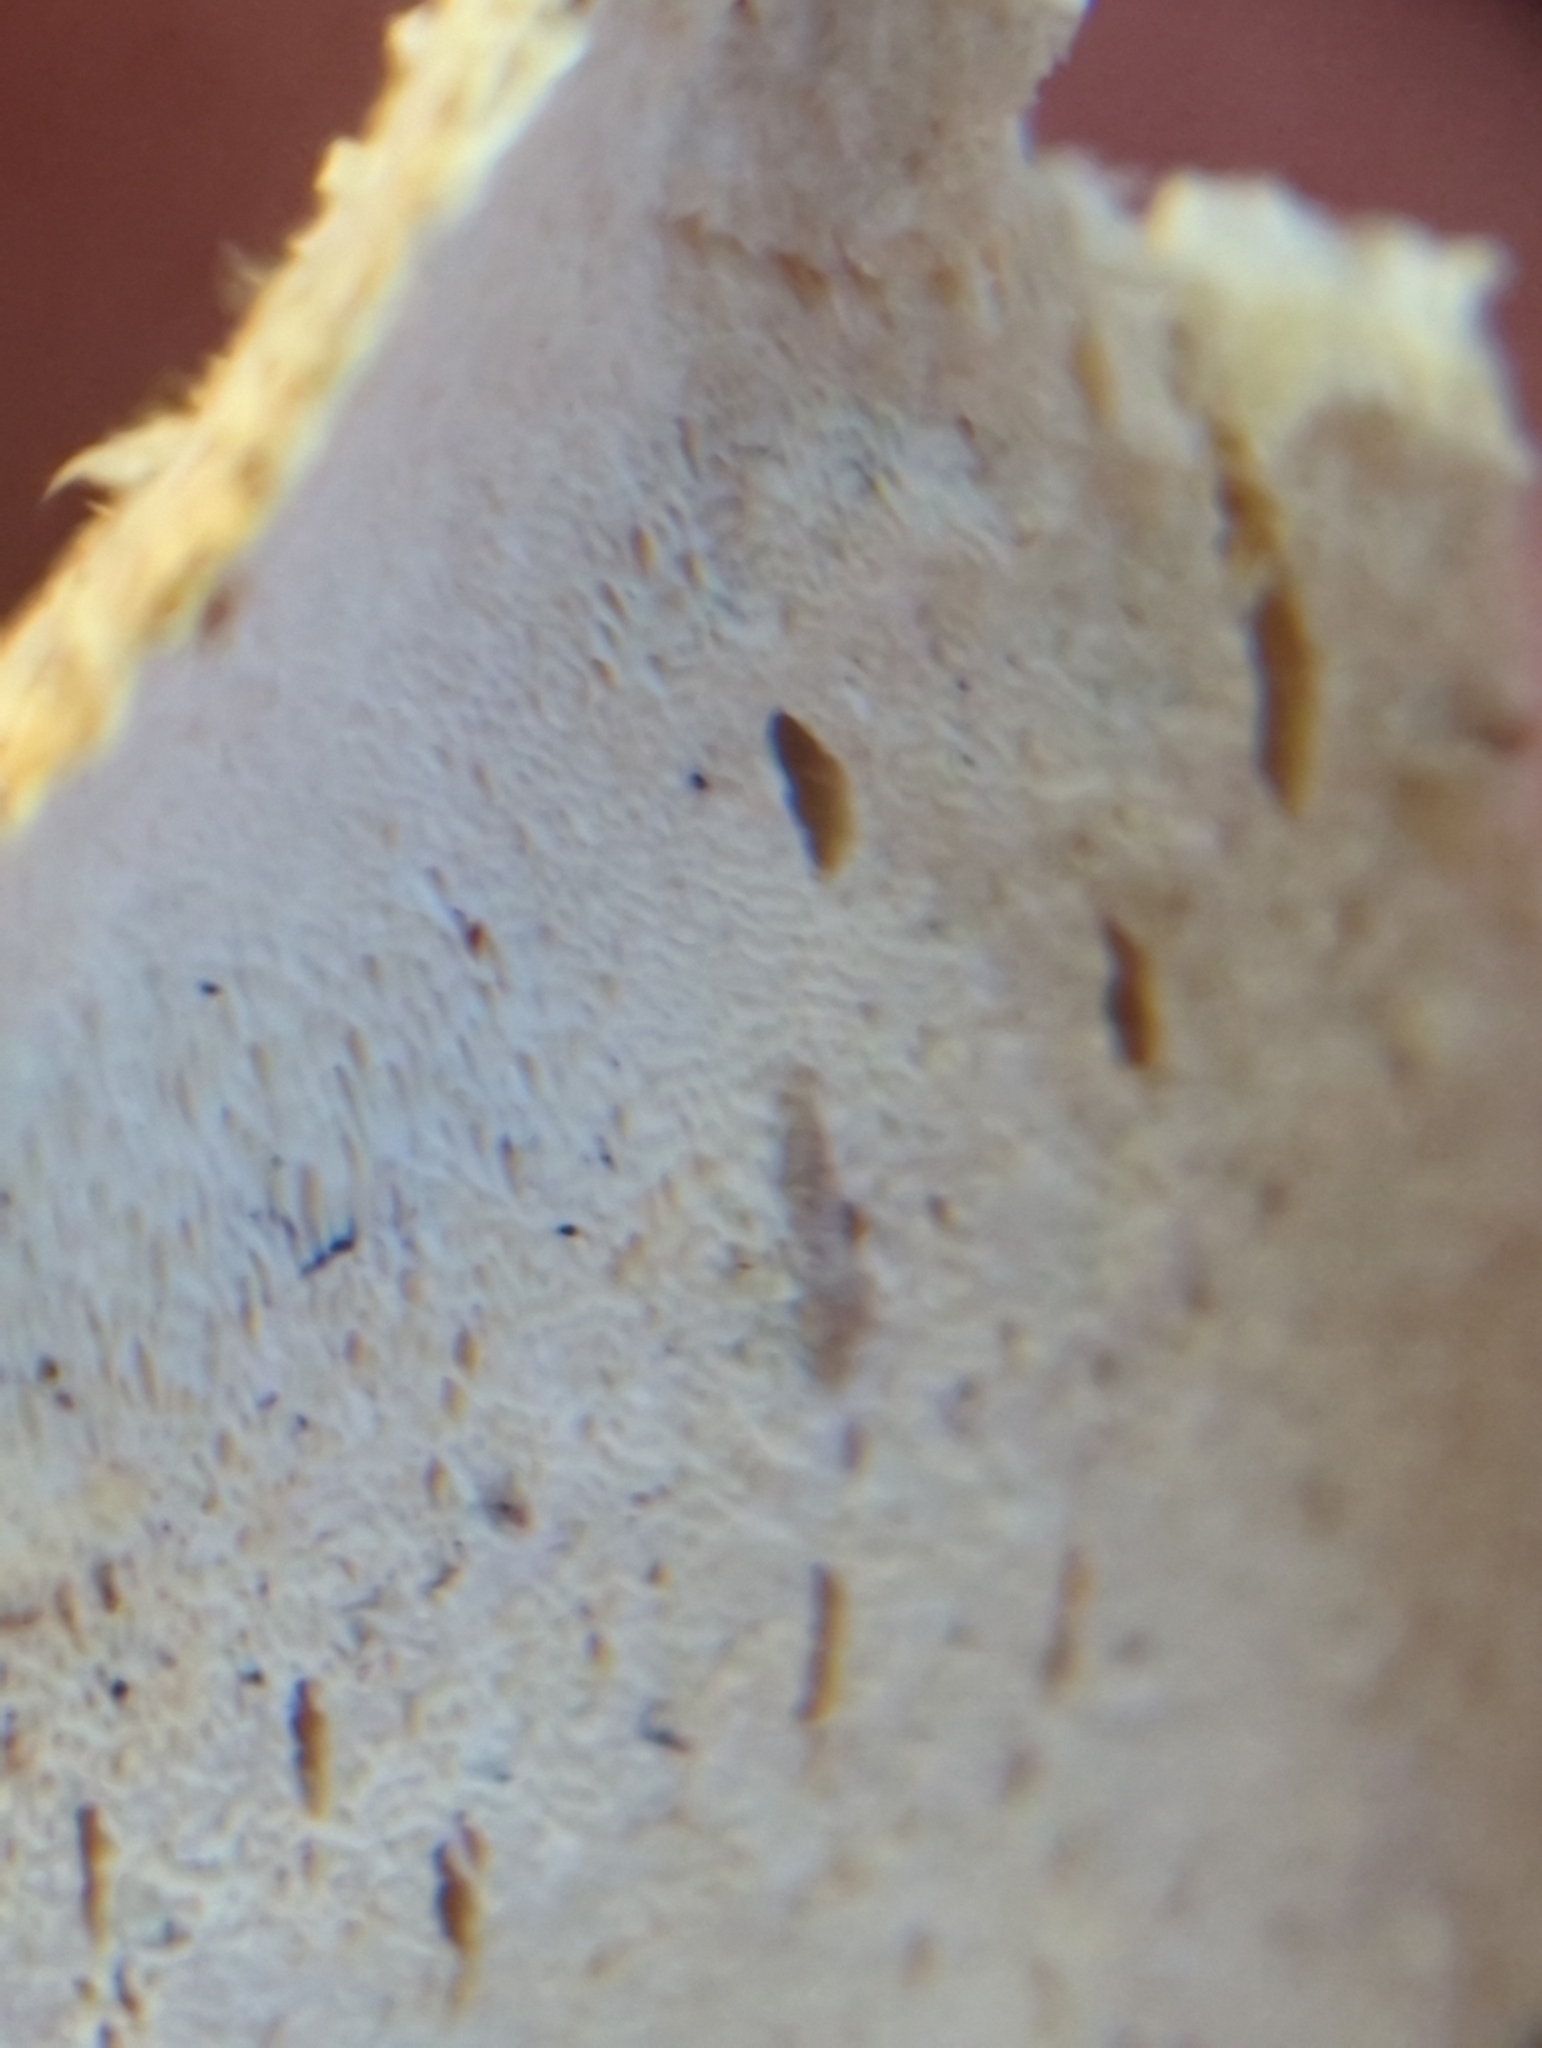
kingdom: Fungi
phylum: Basidiomycota
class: Agaricomycetes
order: Hymenochaetales
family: Rickenellaceae
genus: Sidera
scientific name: Sidera vulgaris
